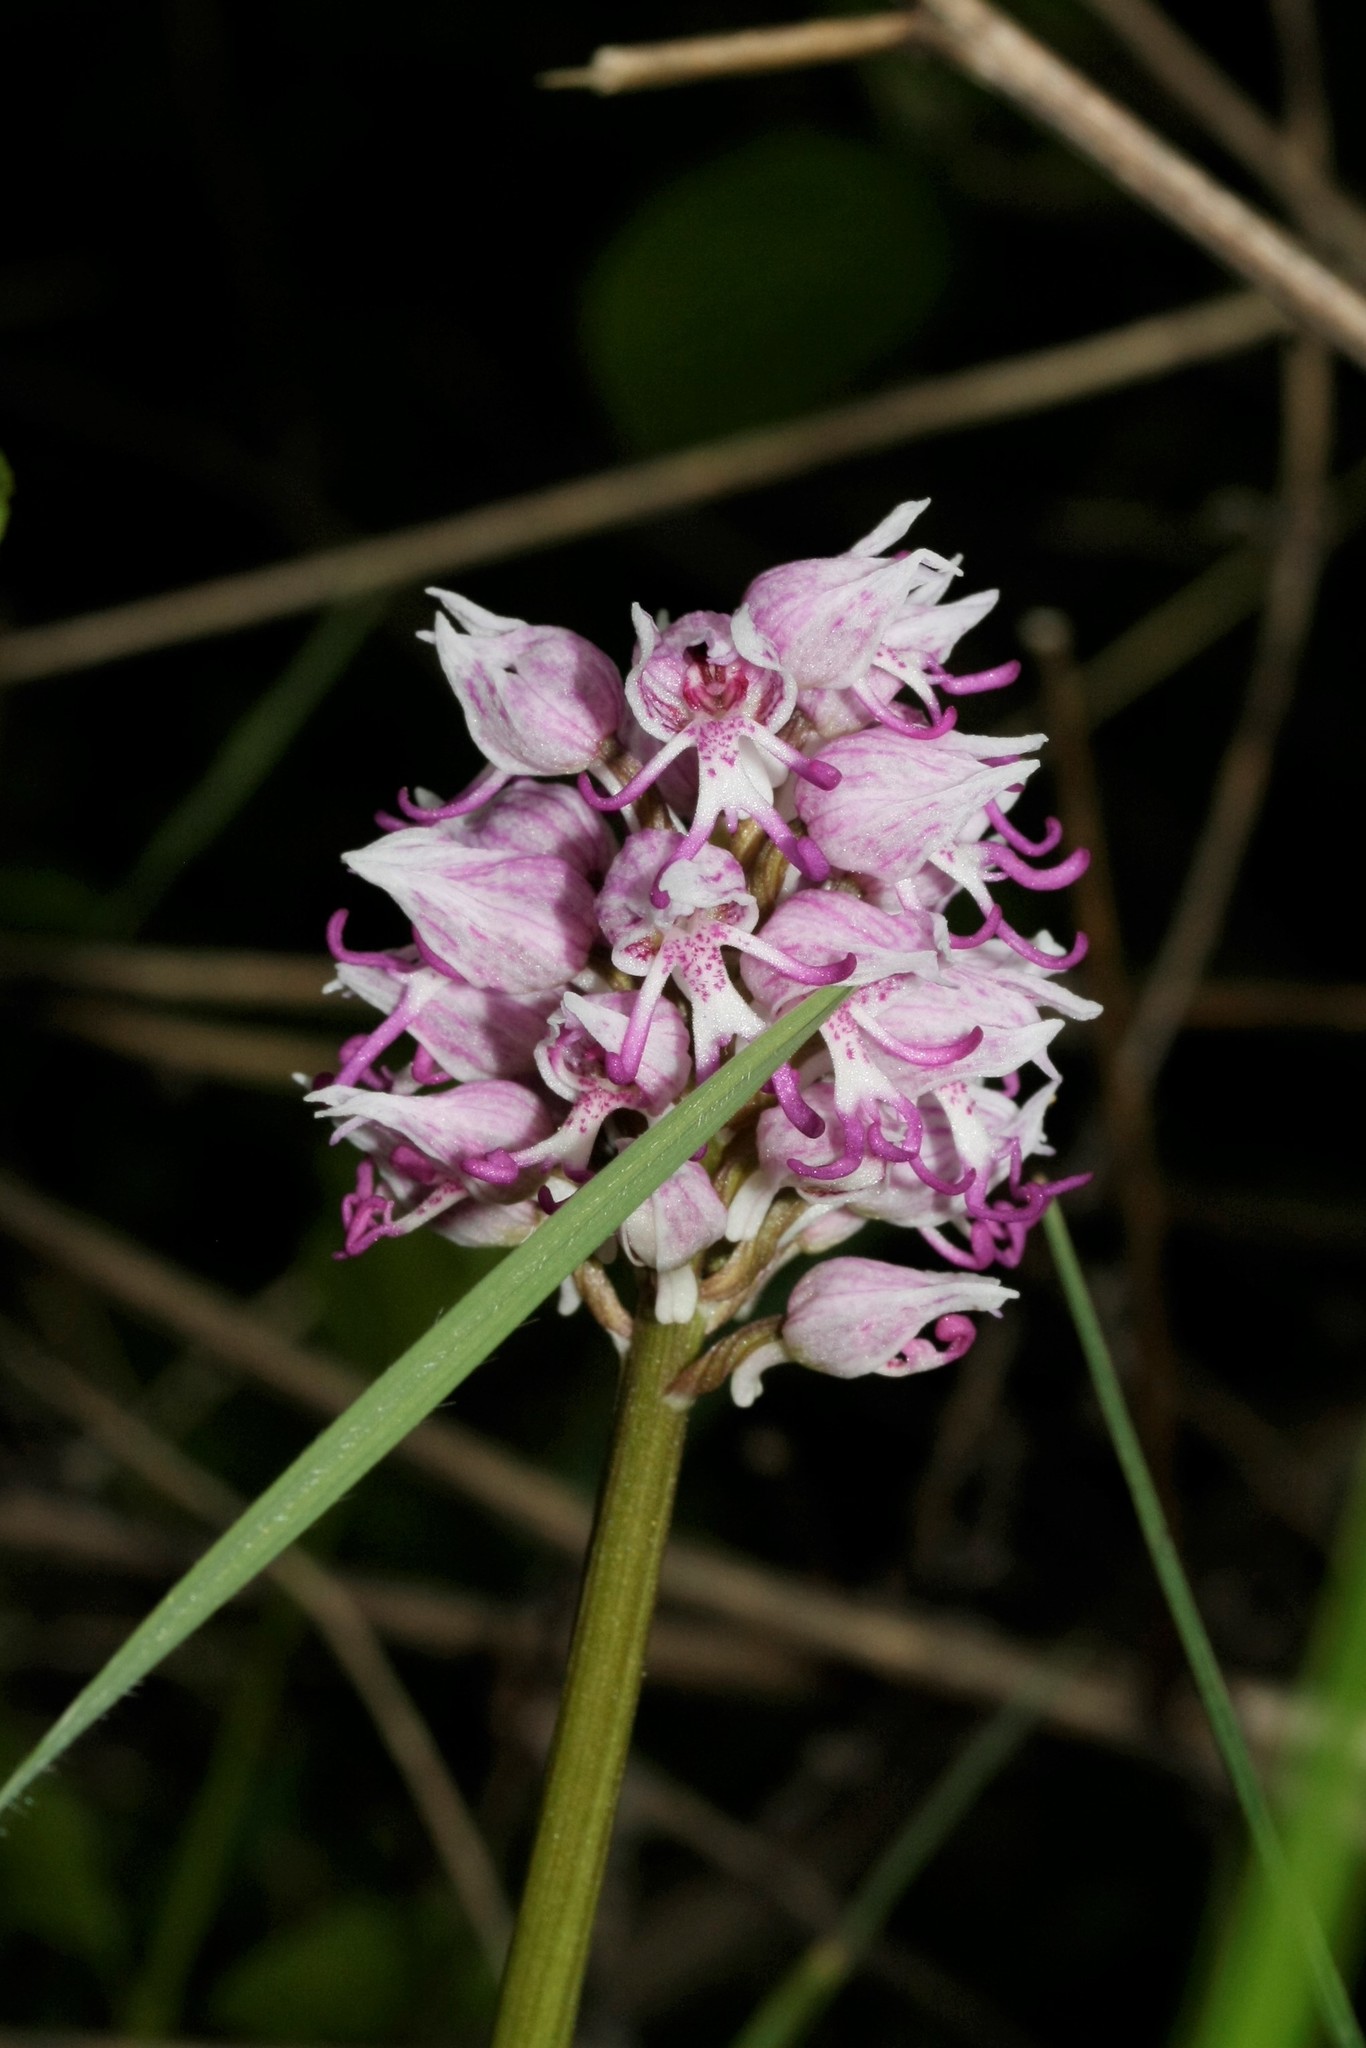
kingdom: Plantae
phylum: Tracheophyta
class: Liliopsida
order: Asparagales
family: Orchidaceae
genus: Orchis
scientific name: Orchis simia
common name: Monkey orchid
